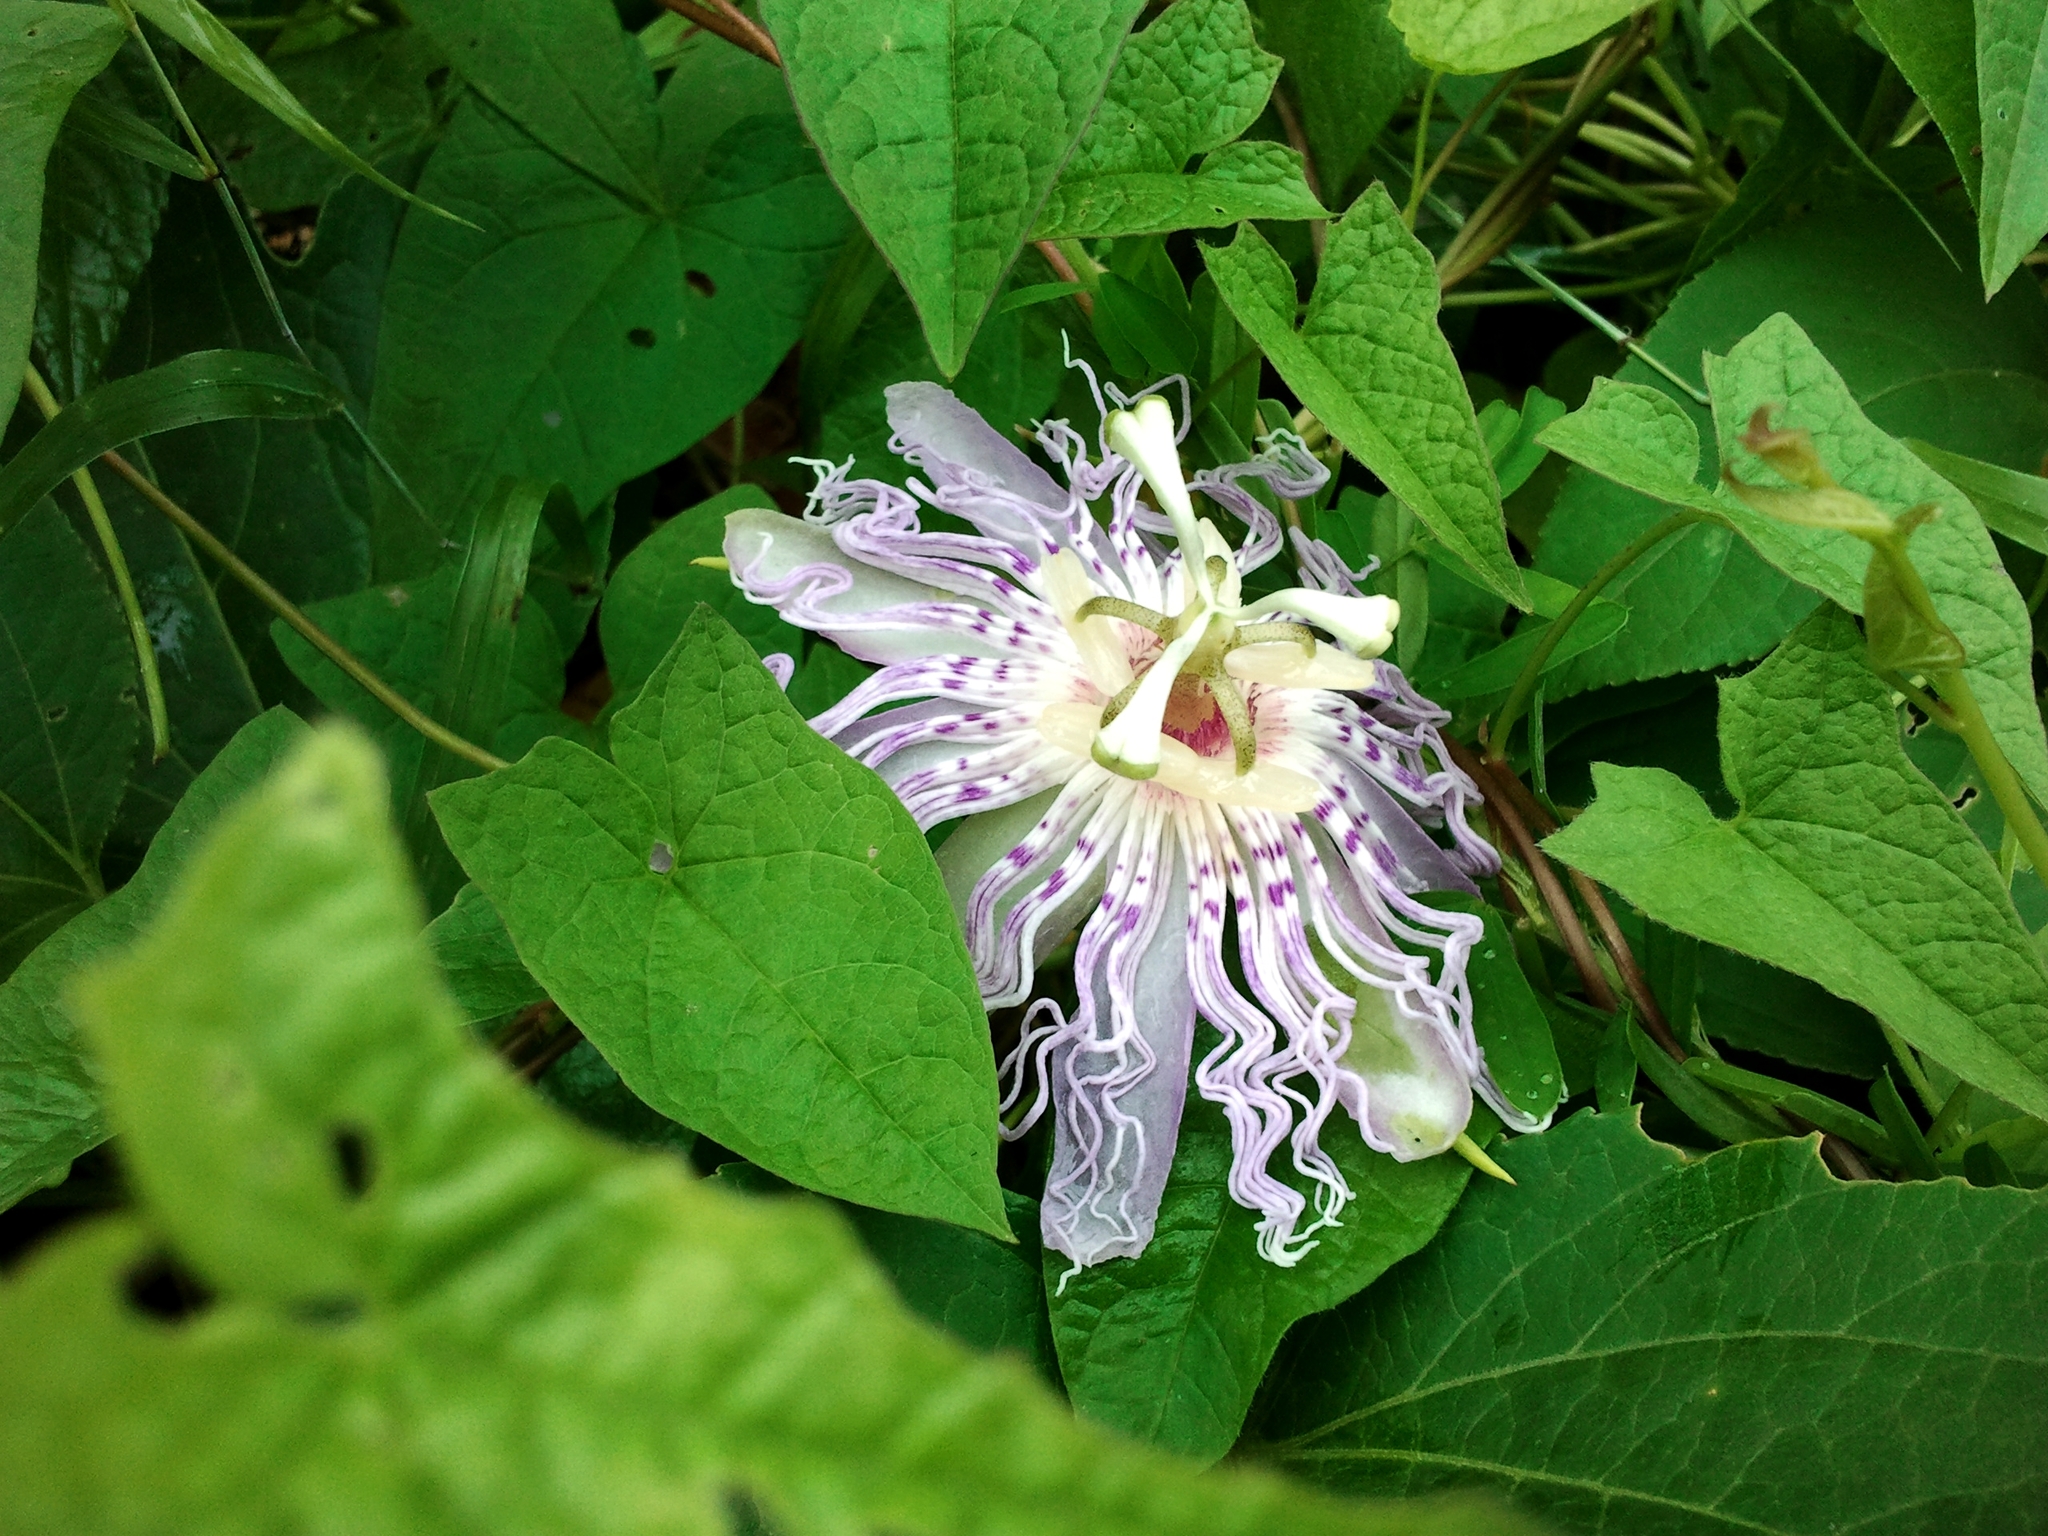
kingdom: Plantae
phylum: Tracheophyta
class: Magnoliopsida
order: Malpighiales
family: Passifloraceae
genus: Passiflora
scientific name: Passiflora incarnata
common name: Apricot-vine
